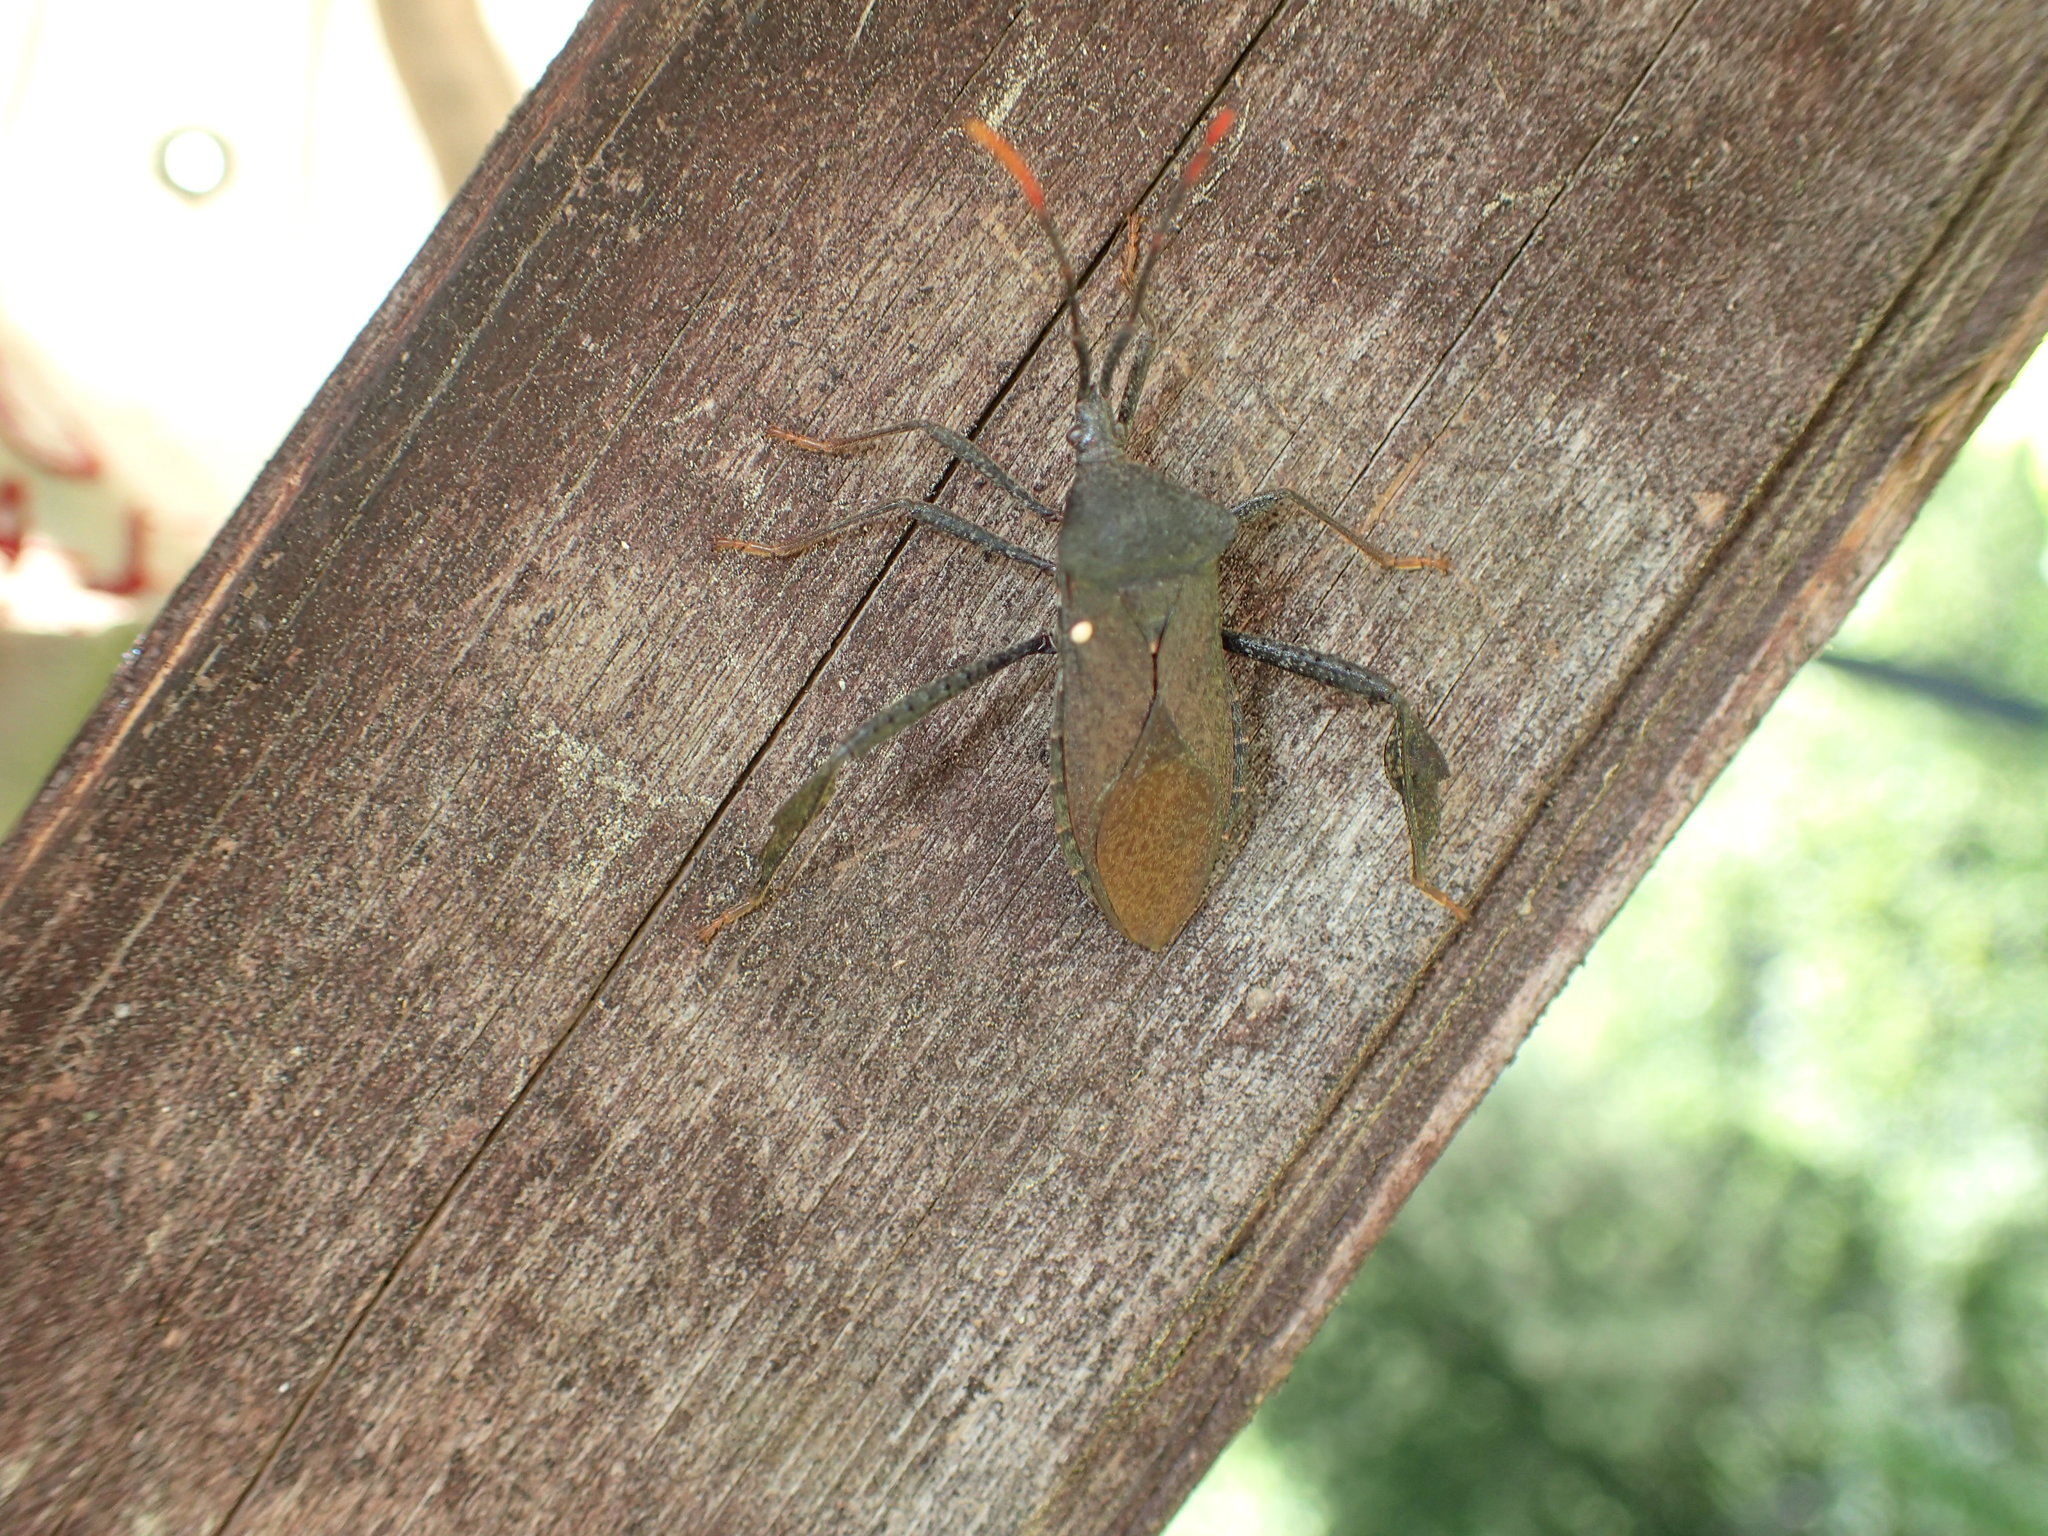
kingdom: Animalia
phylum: Arthropoda
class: Insecta
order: Hemiptera
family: Coreidae
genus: Acanthocephala
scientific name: Acanthocephala terminalis
